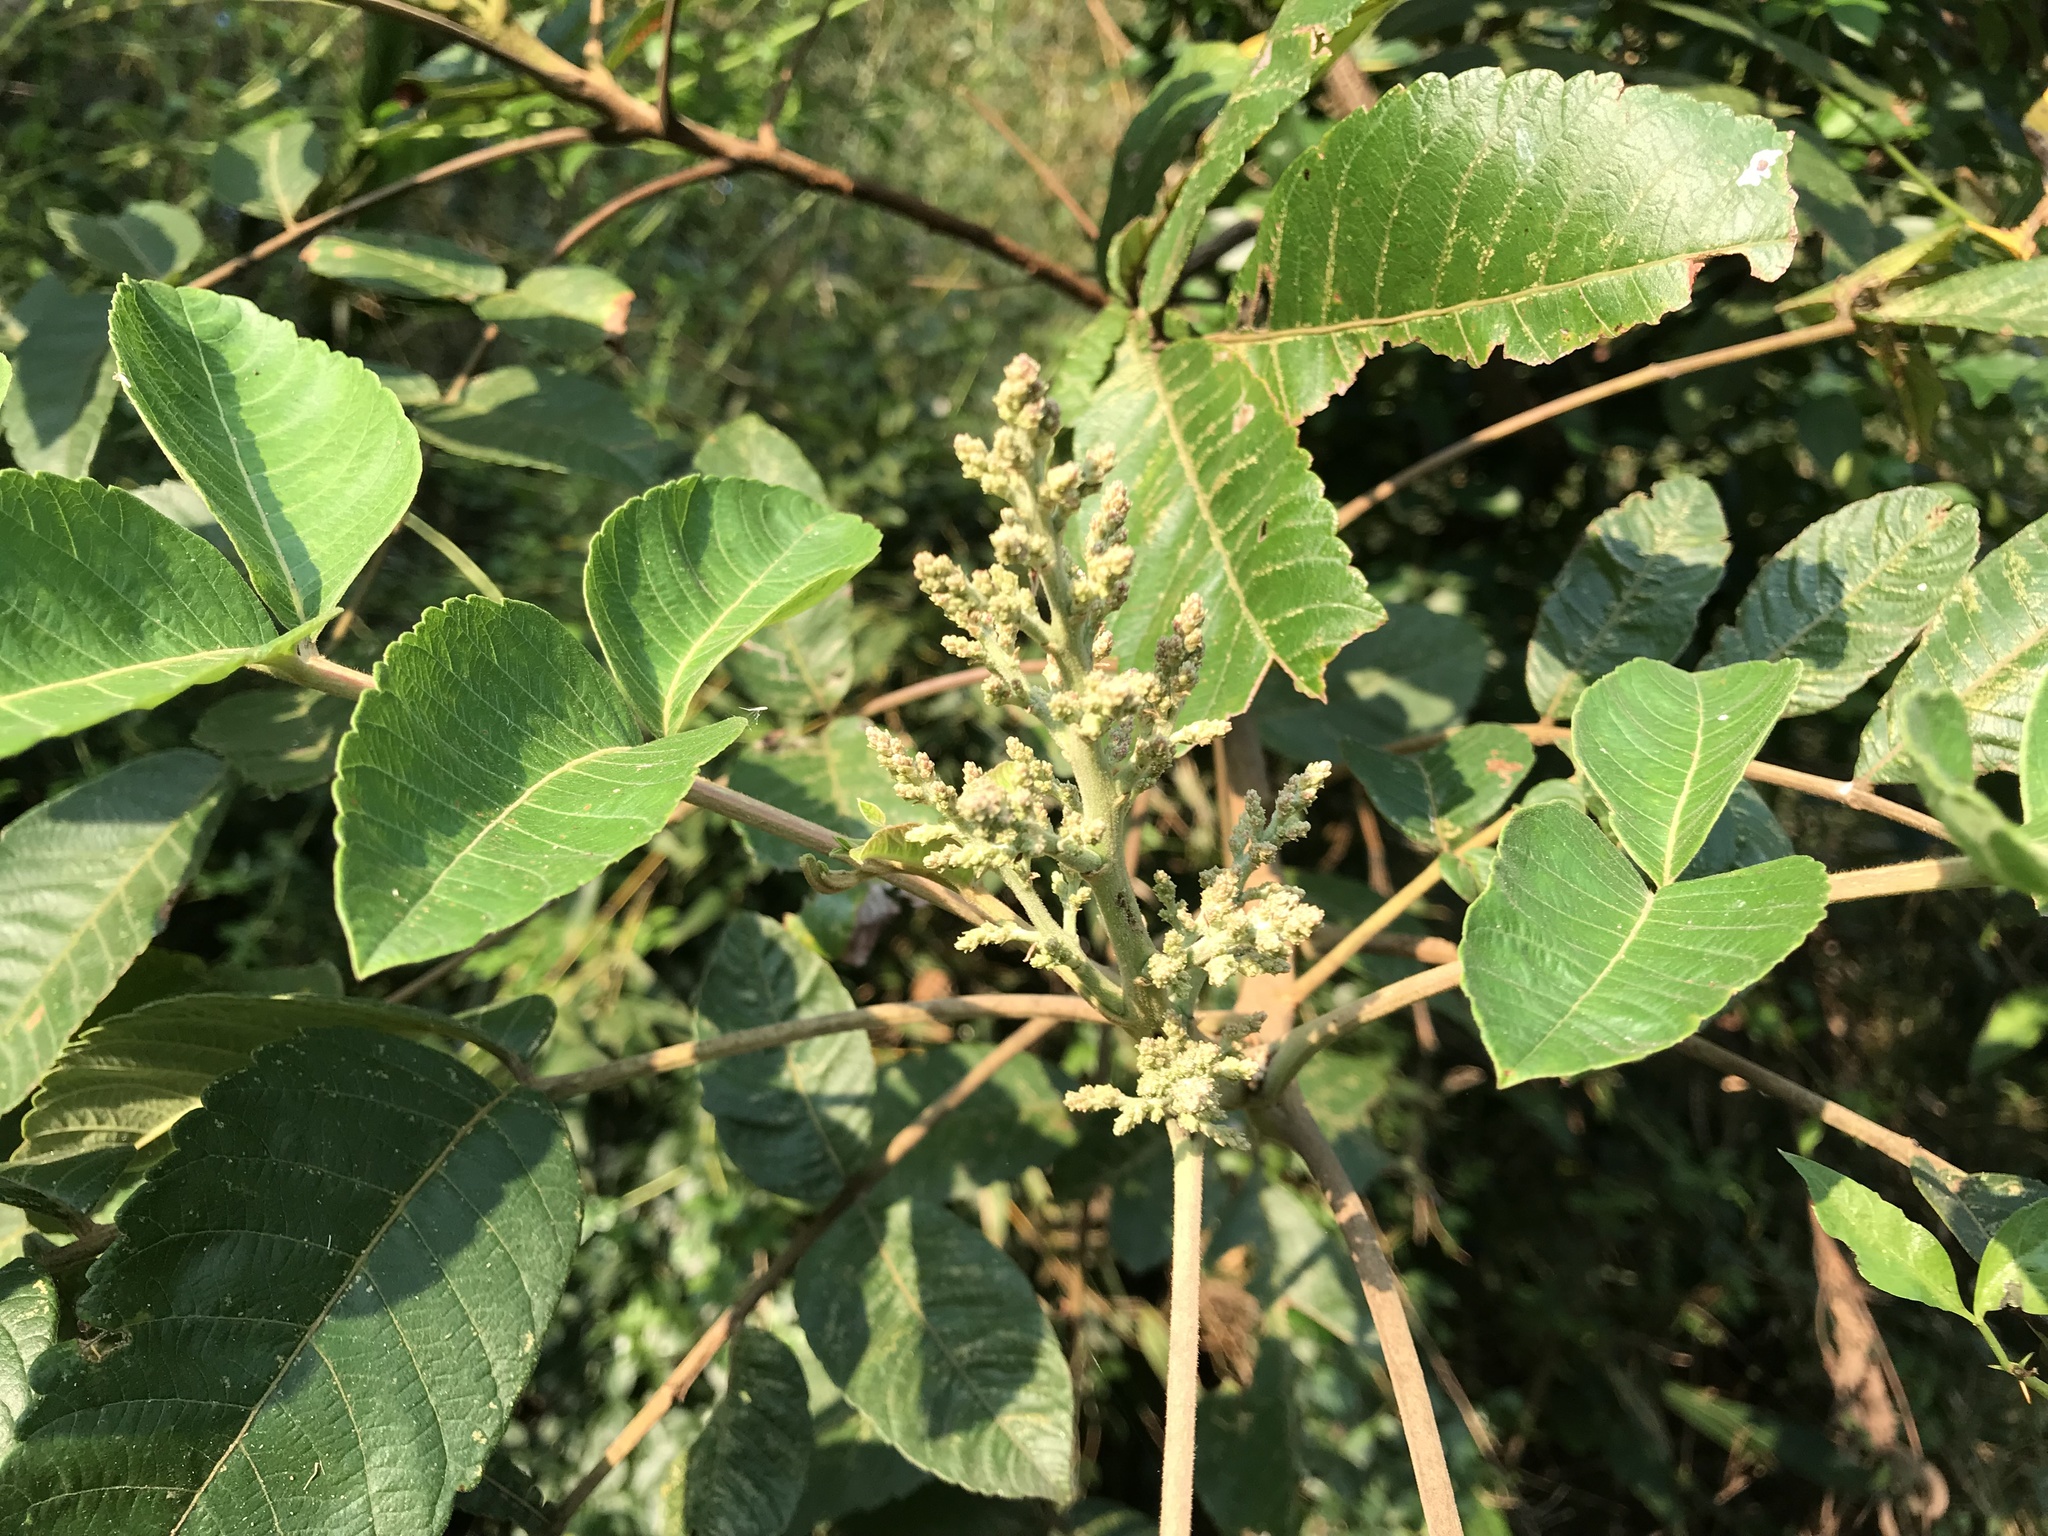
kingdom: Plantae
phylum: Tracheophyta
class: Magnoliopsida
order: Sapindales
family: Anacardiaceae
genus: Rhus
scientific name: Rhus chinensis
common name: Chinese gall
